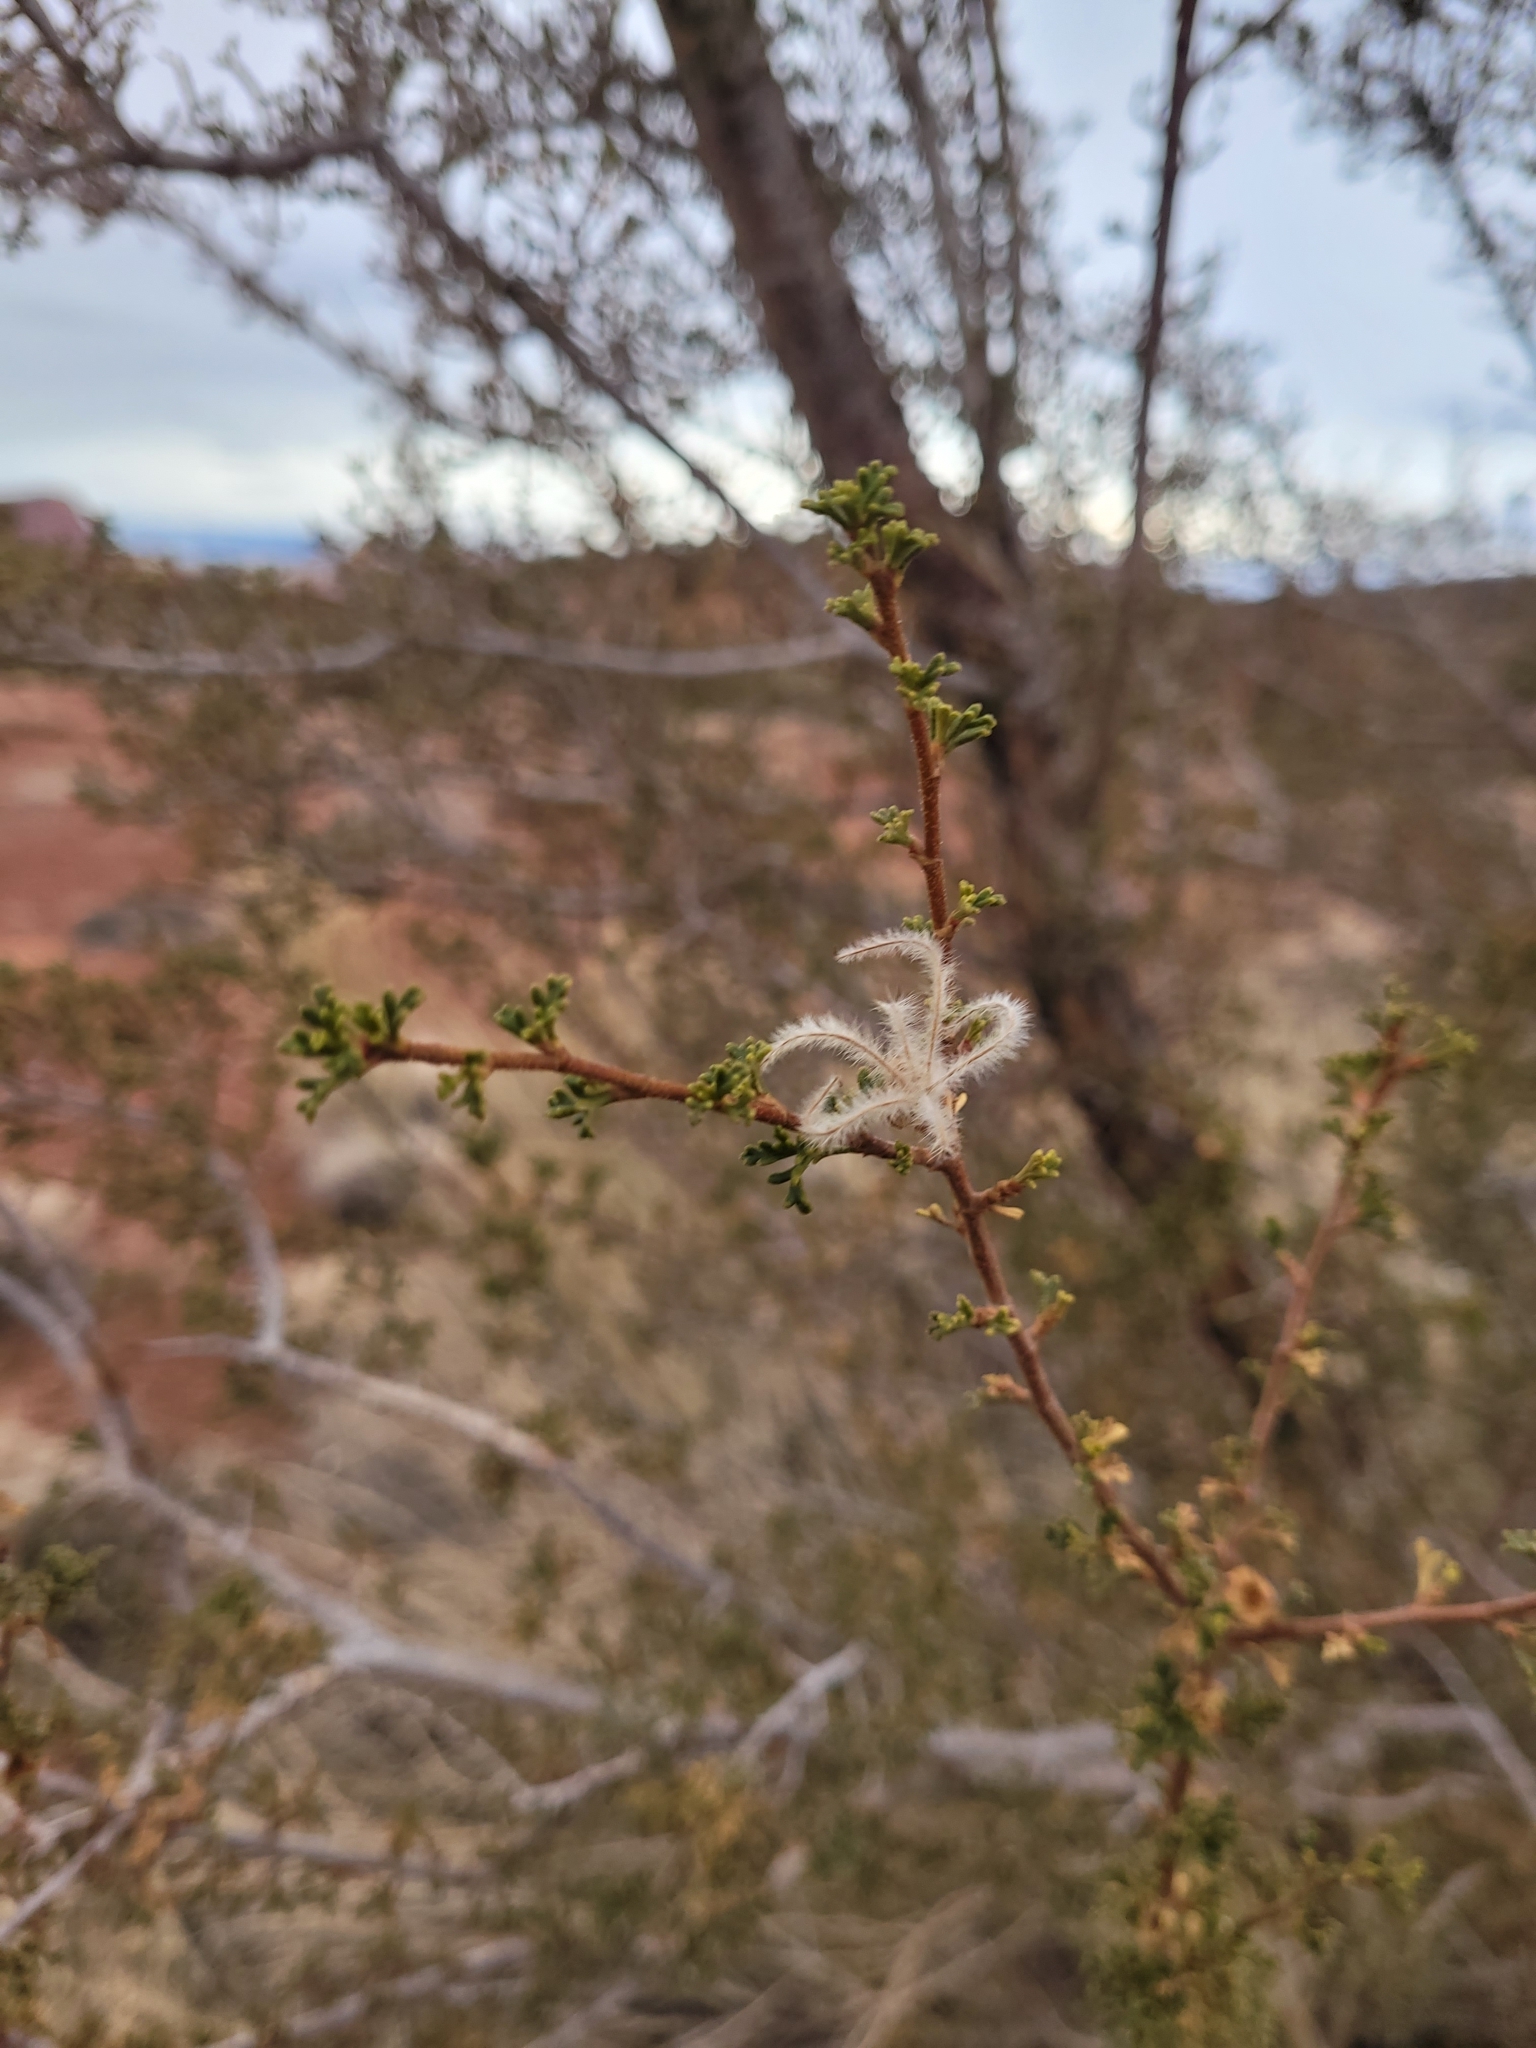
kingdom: Plantae
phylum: Tracheophyta
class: Magnoliopsida
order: Rosales
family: Rosaceae
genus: Purshia
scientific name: Purshia stansburiana
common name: Stansbury's cliffrose
